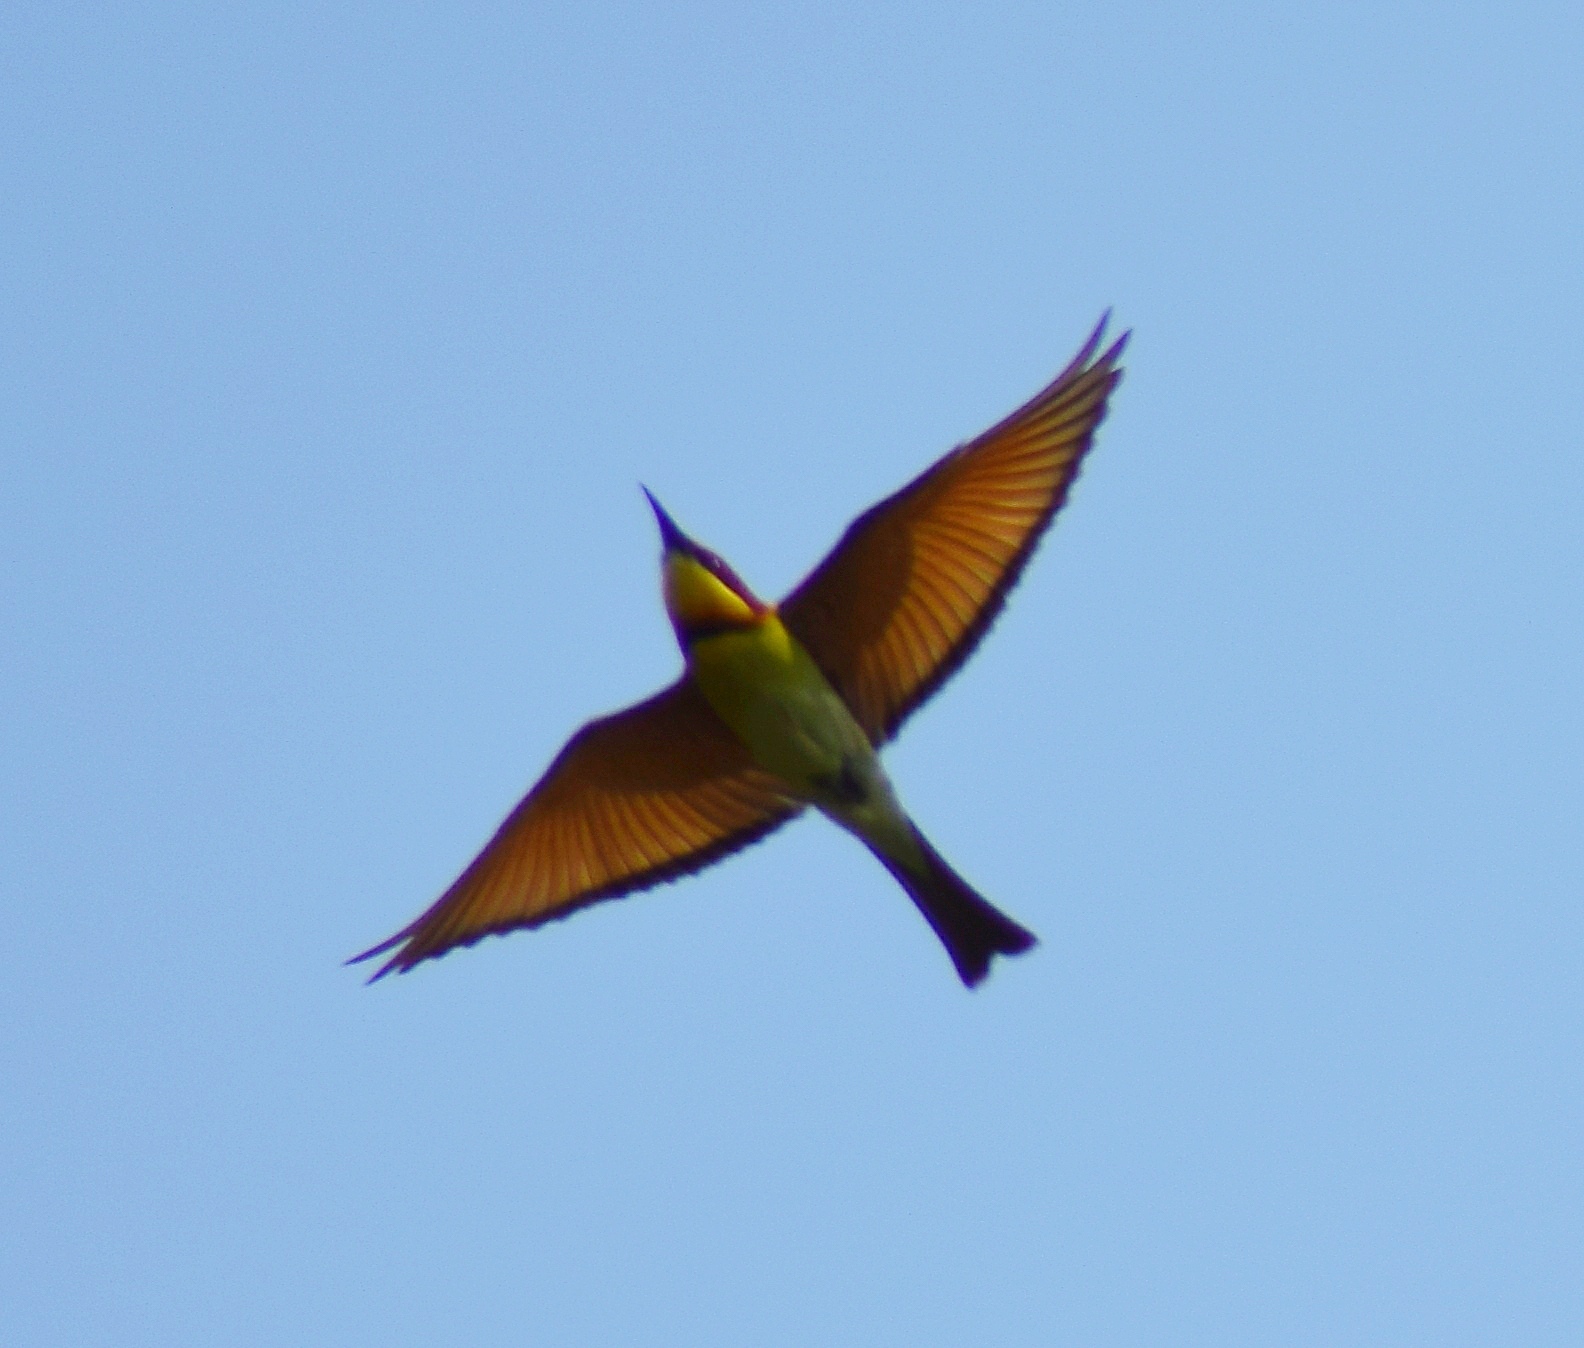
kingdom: Animalia
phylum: Chordata
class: Aves
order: Coraciiformes
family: Meropidae
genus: Merops
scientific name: Merops leschenaulti
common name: Chestnut-headed bee-eater
